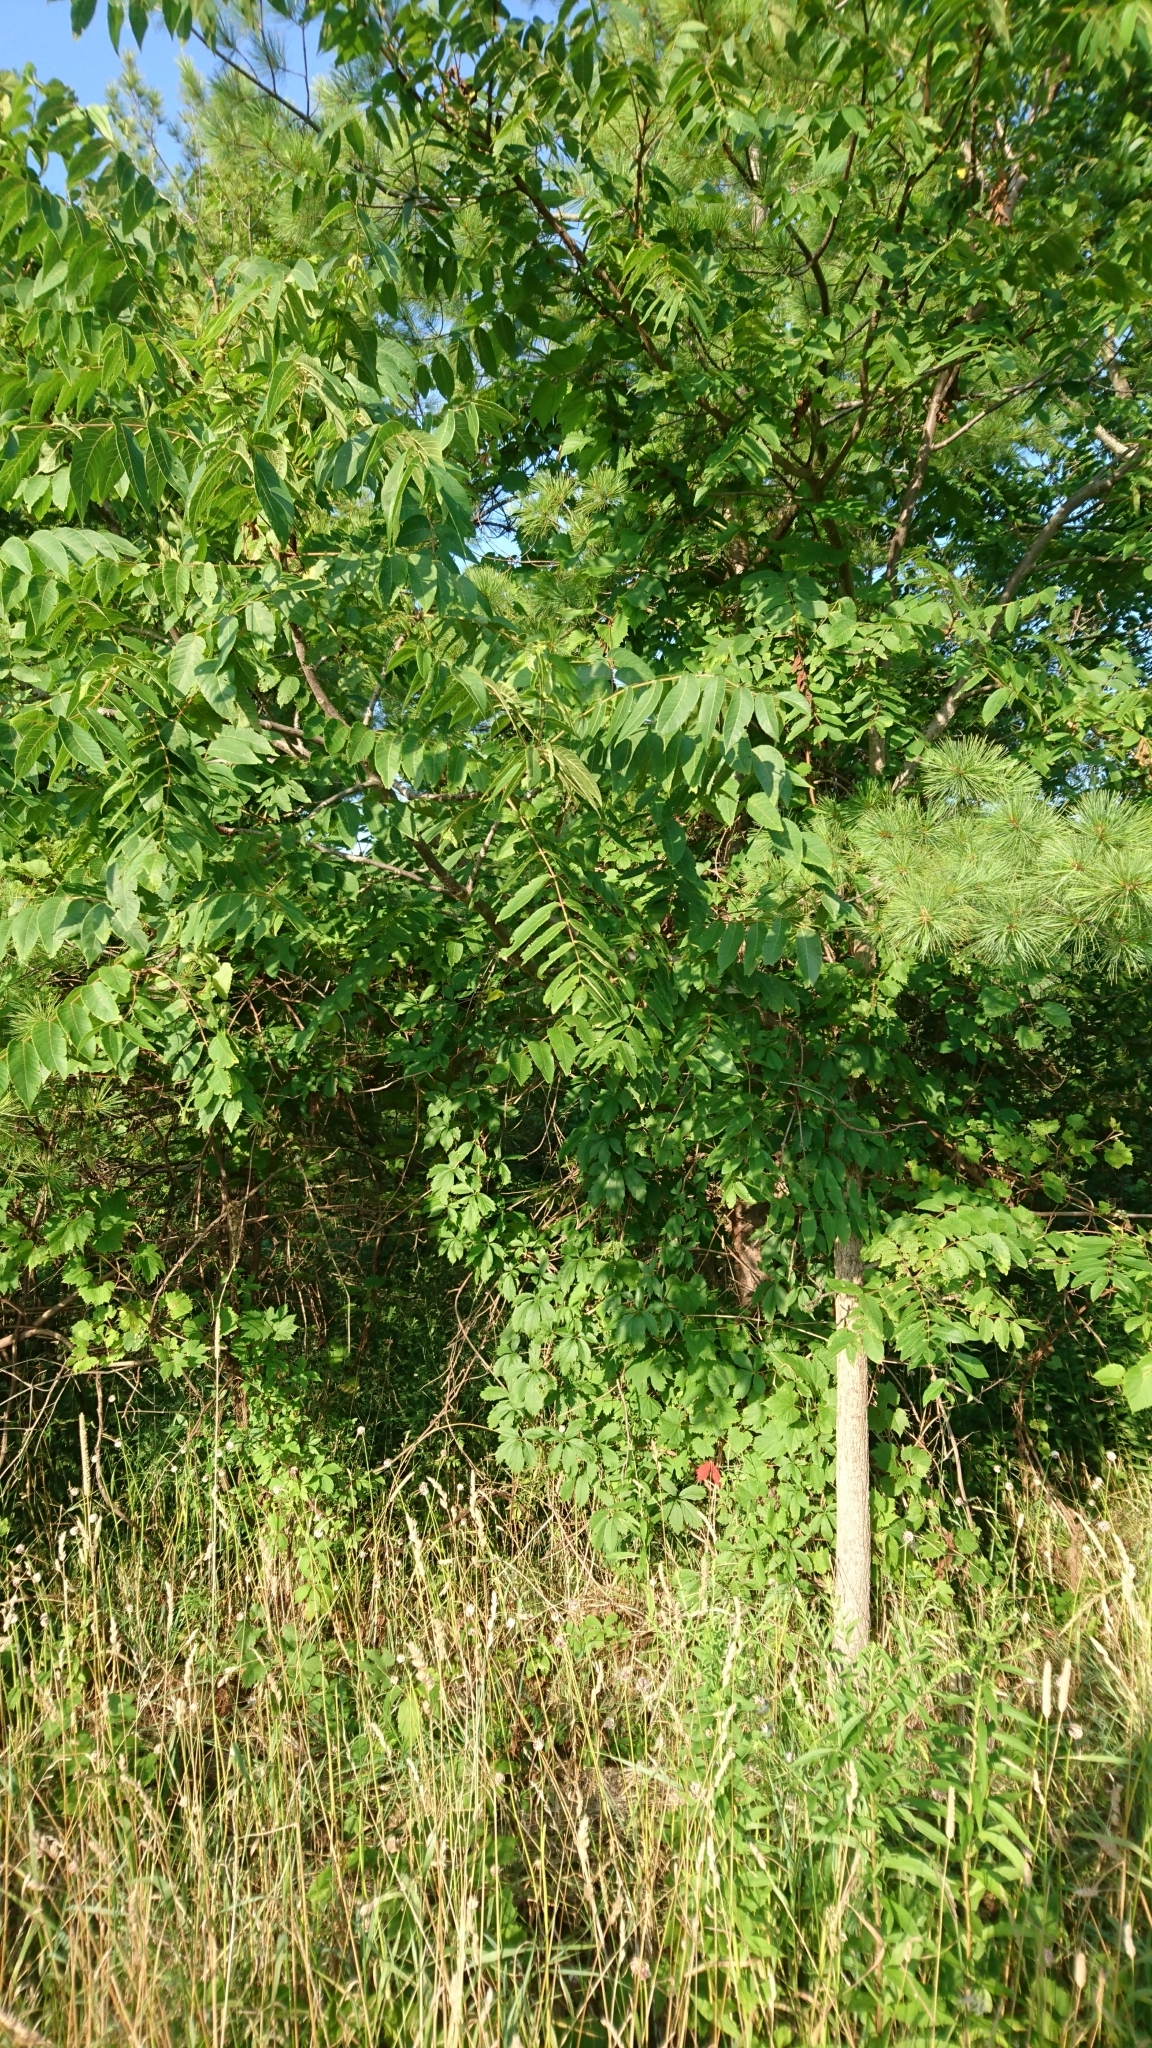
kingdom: Plantae
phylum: Tracheophyta
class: Magnoliopsida
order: Fagales
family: Juglandaceae
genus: Juglans
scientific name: Juglans nigra
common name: Black walnut
